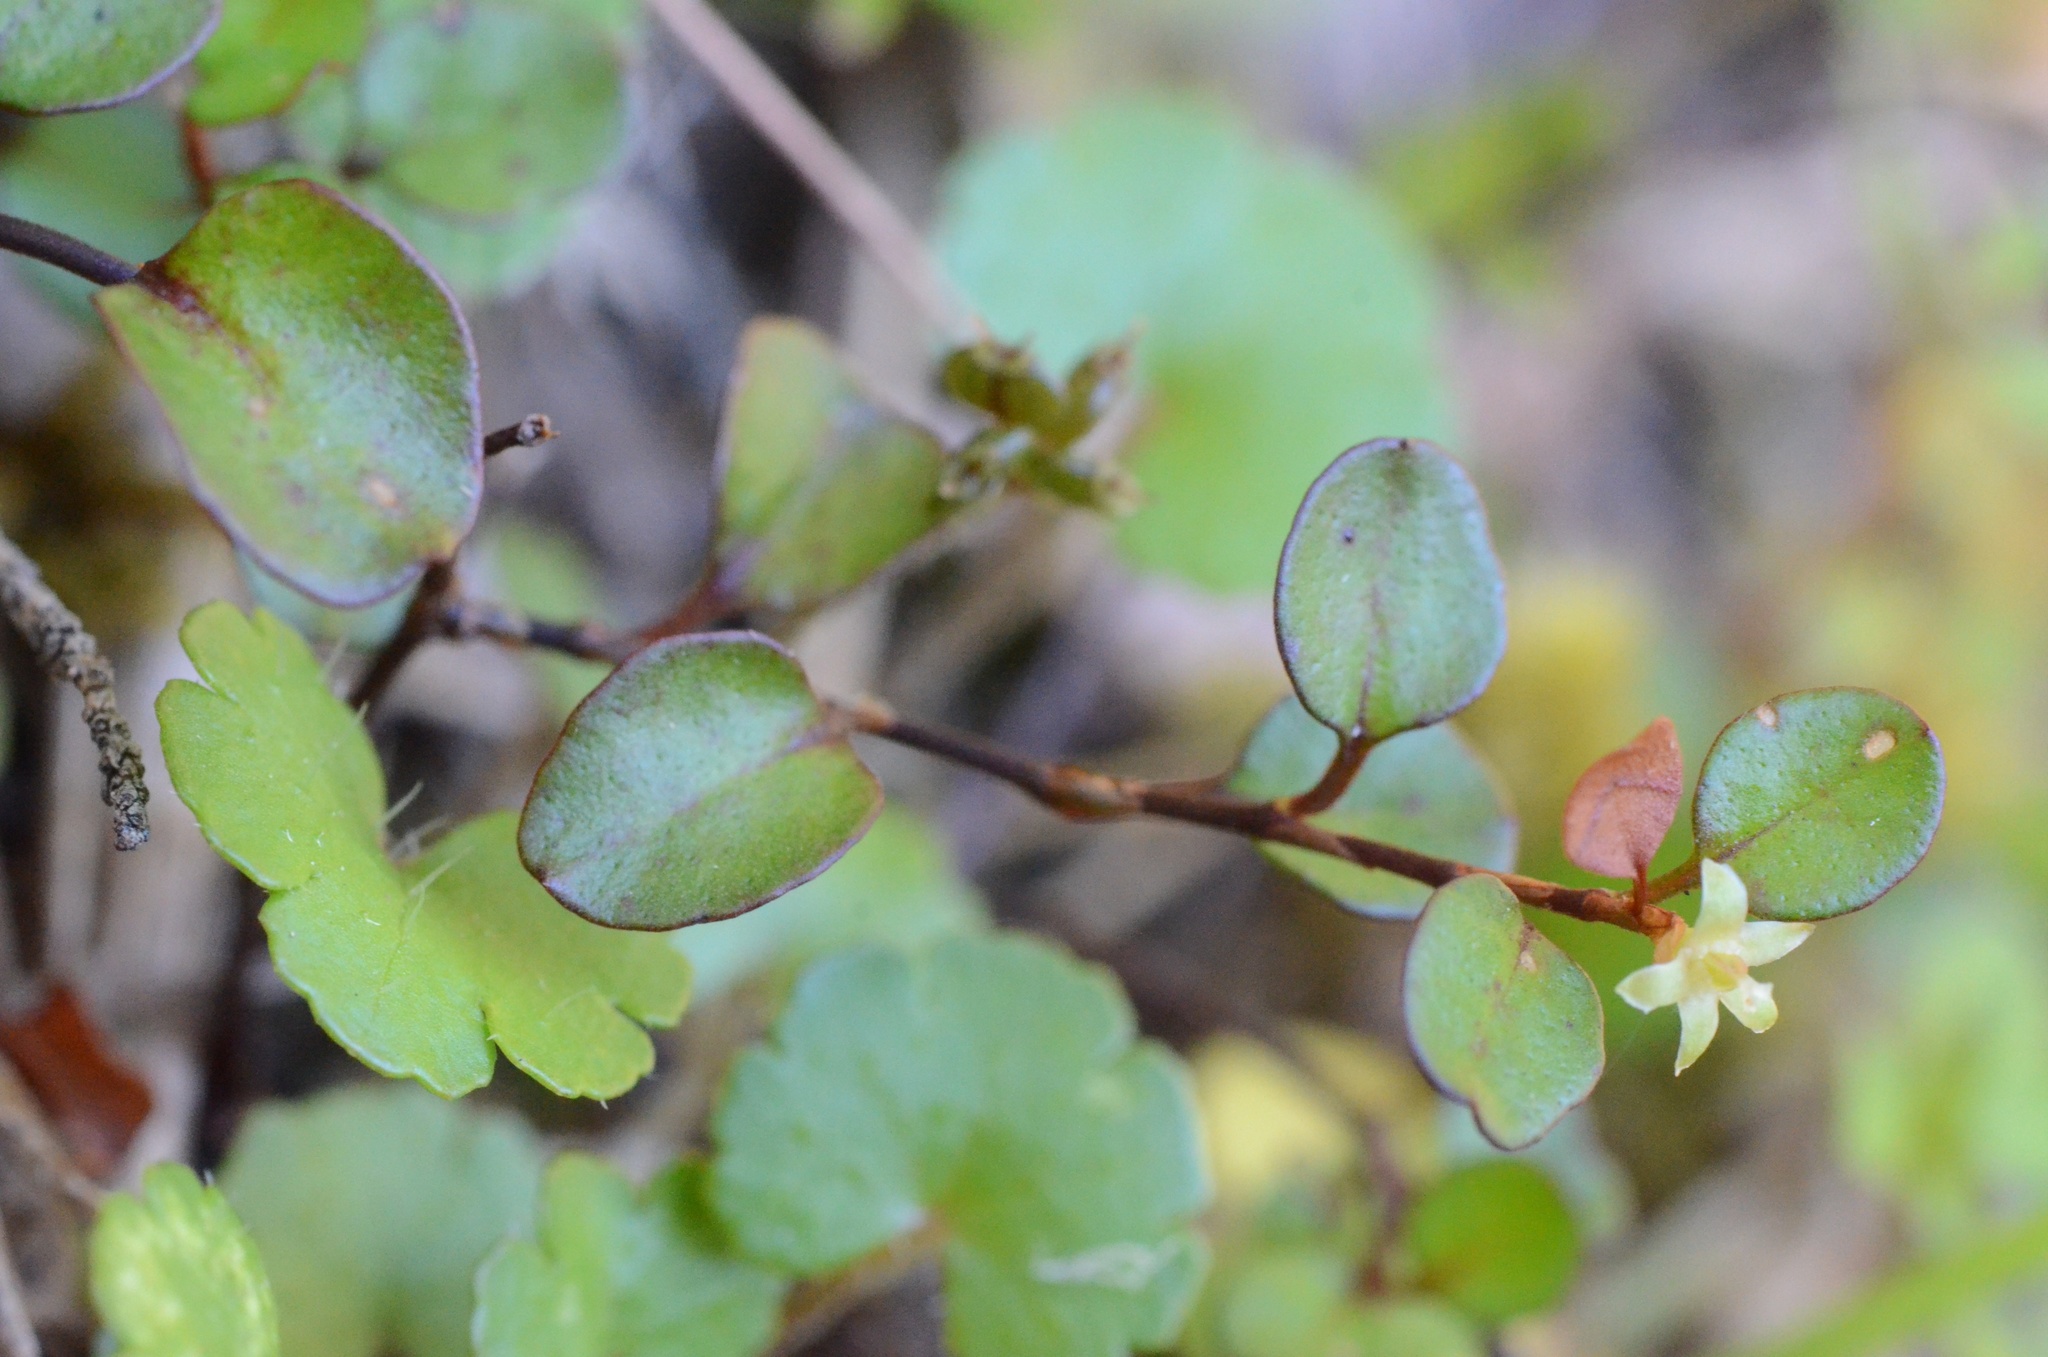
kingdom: Plantae
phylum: Tracheophyta
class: Magnoliopsida
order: Caryophyllales
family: Polygonaceae
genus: Muehlenbeckia
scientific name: Muehlenbeckia axillaris
